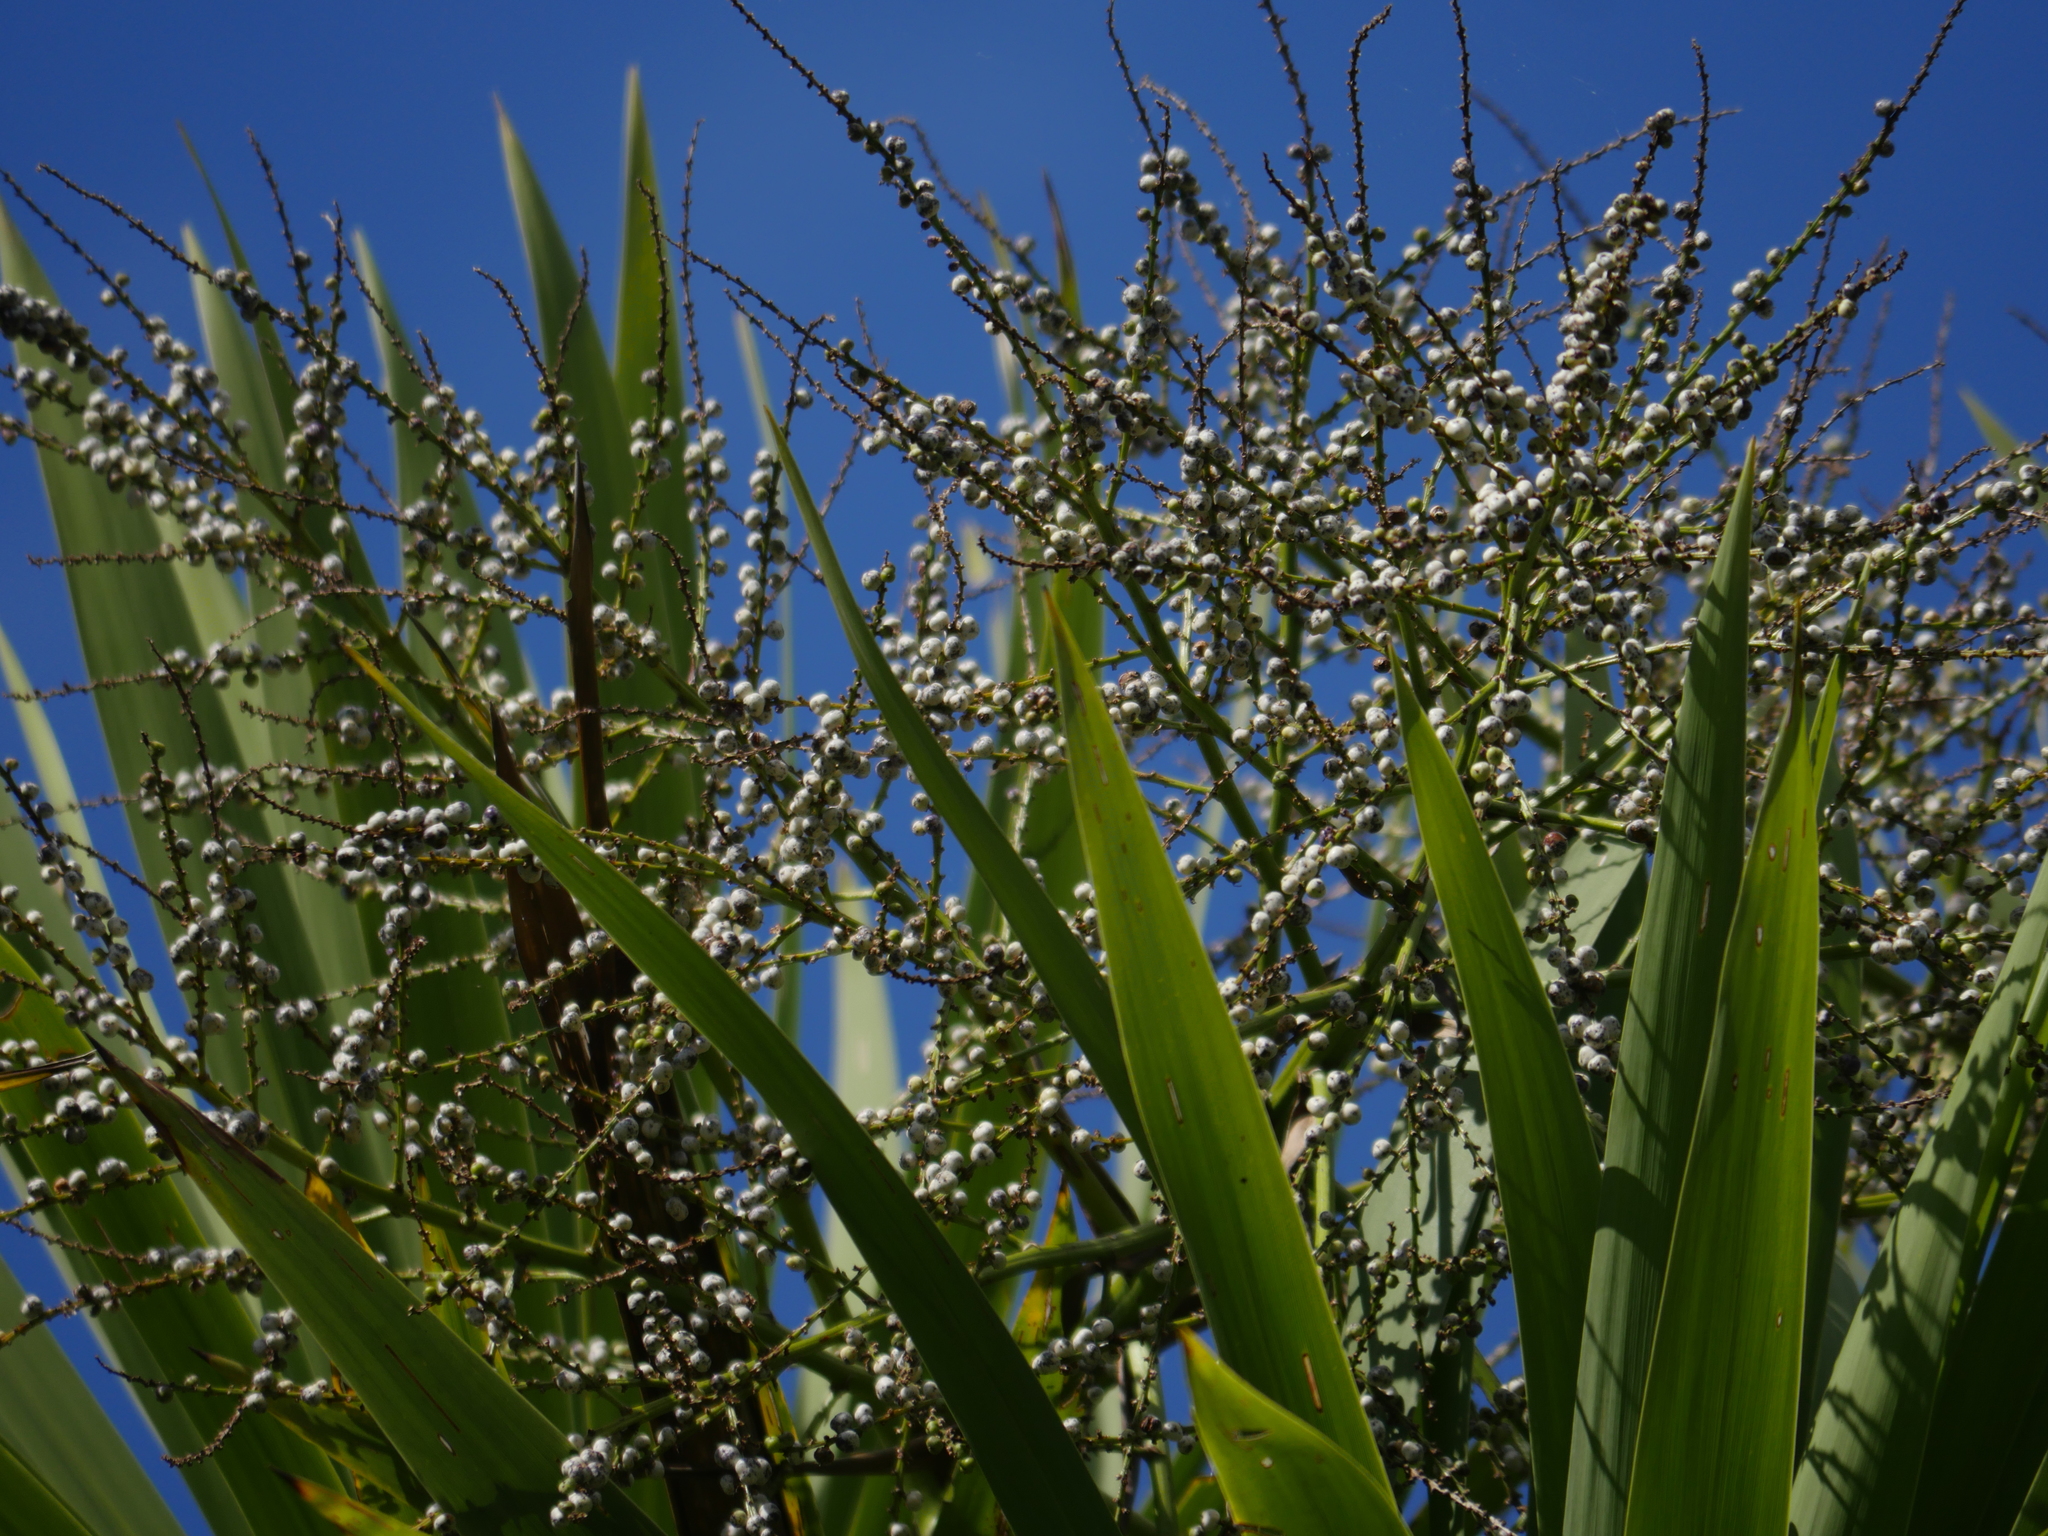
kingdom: Plantae
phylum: Tracheophyta
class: Liliopsida
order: Asparagales
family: Asparagaceae
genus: Cordyline
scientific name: Cordyline australis
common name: Cabbage-palm
